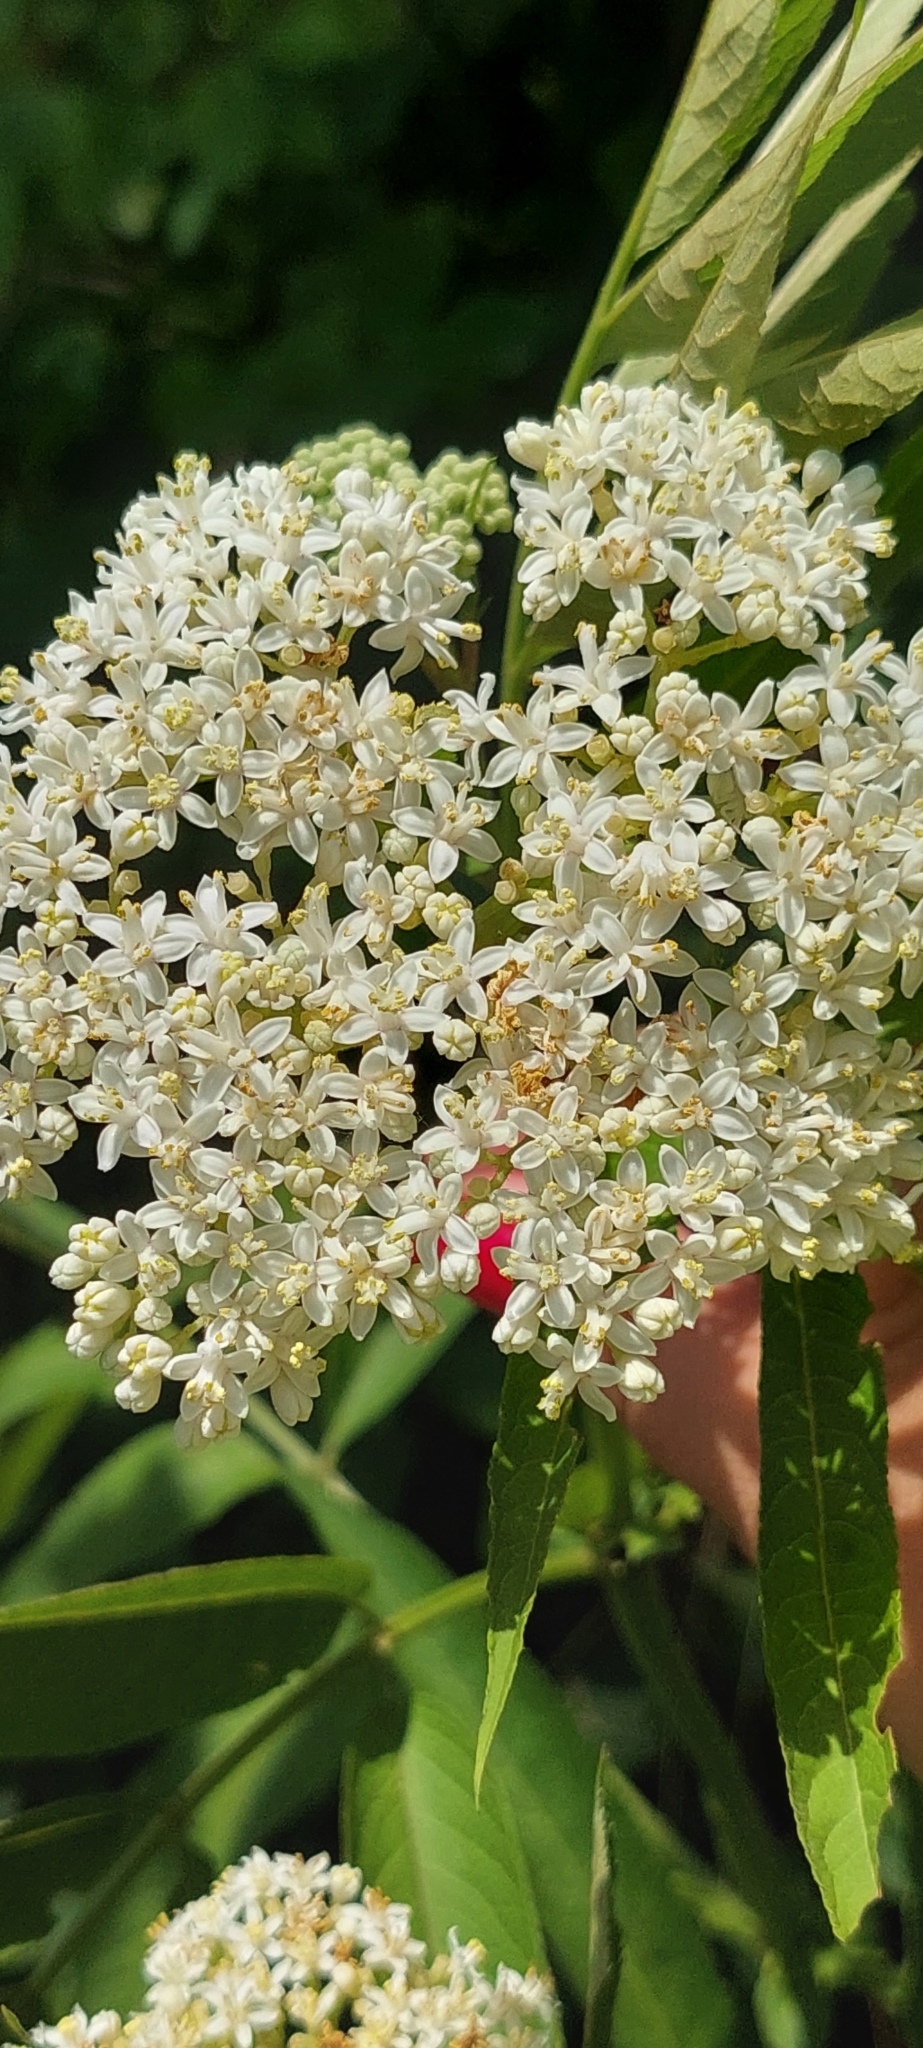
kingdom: Plantae
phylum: Tracheophyta
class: Magnoliopsida
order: Dipsacales
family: Viburnaceae
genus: Sambucus
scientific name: Sambucus ebulus
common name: Dwarf elder
